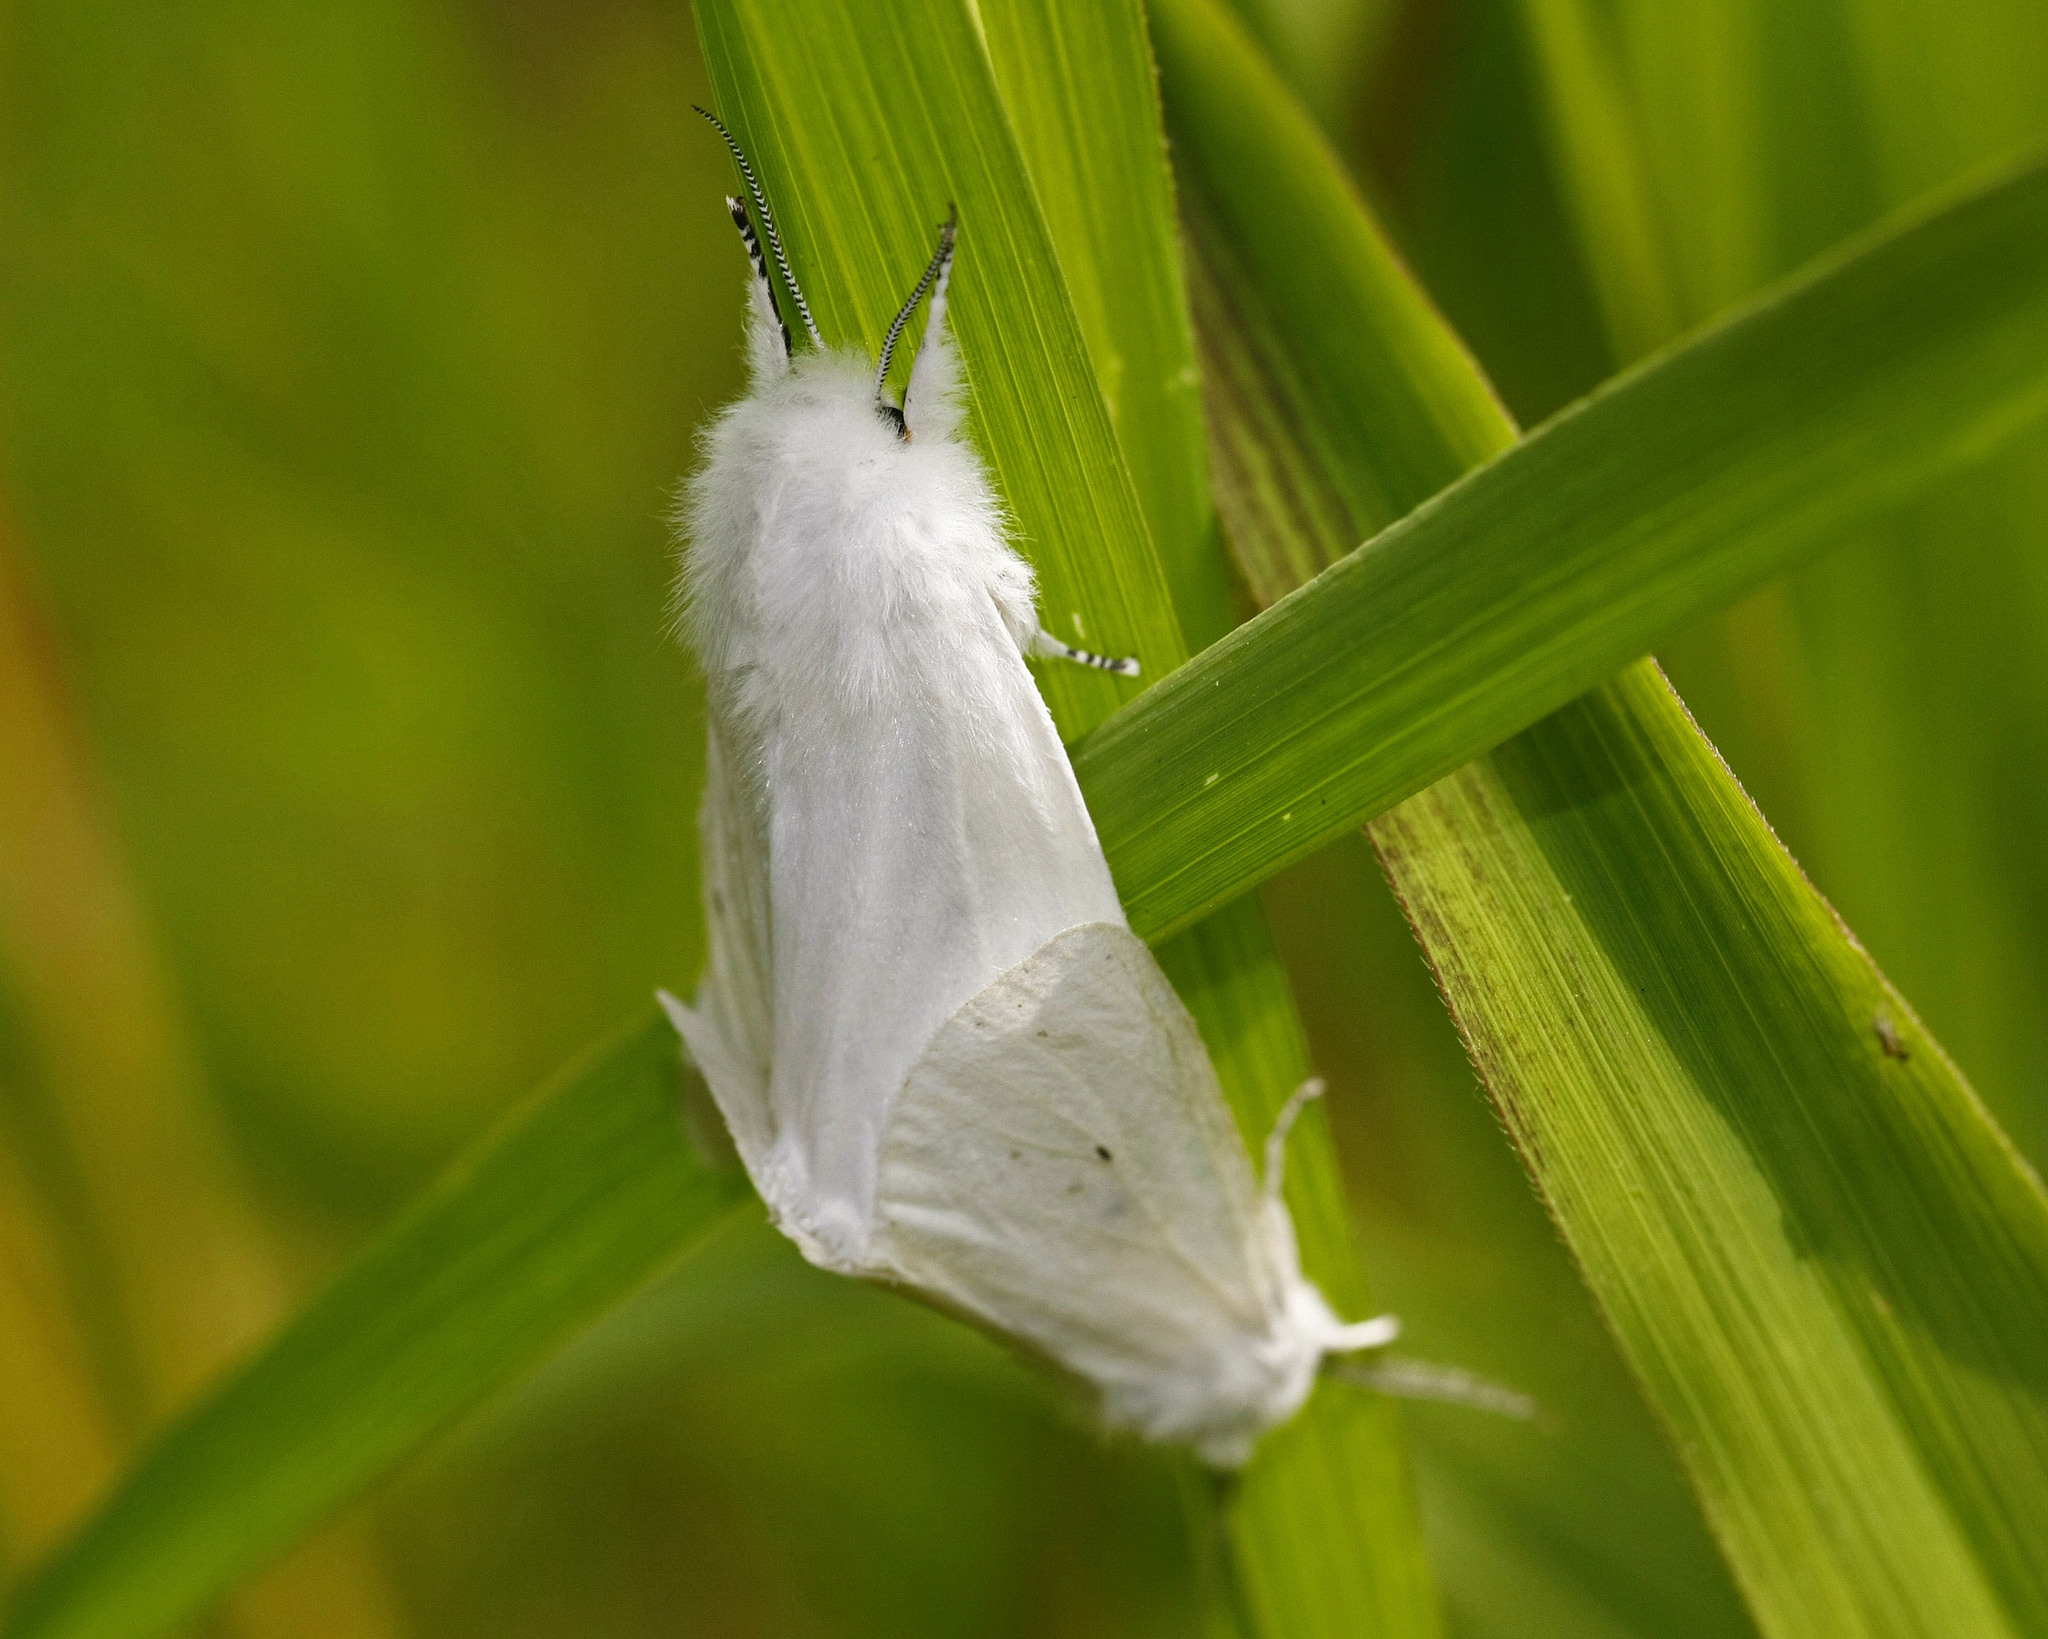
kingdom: Animalia
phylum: Arthropoda
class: Insecta
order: Lepidoptera
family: Erebidae
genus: Spilosoma
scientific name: Spilosoma virginica
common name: Virginia tiger moth
